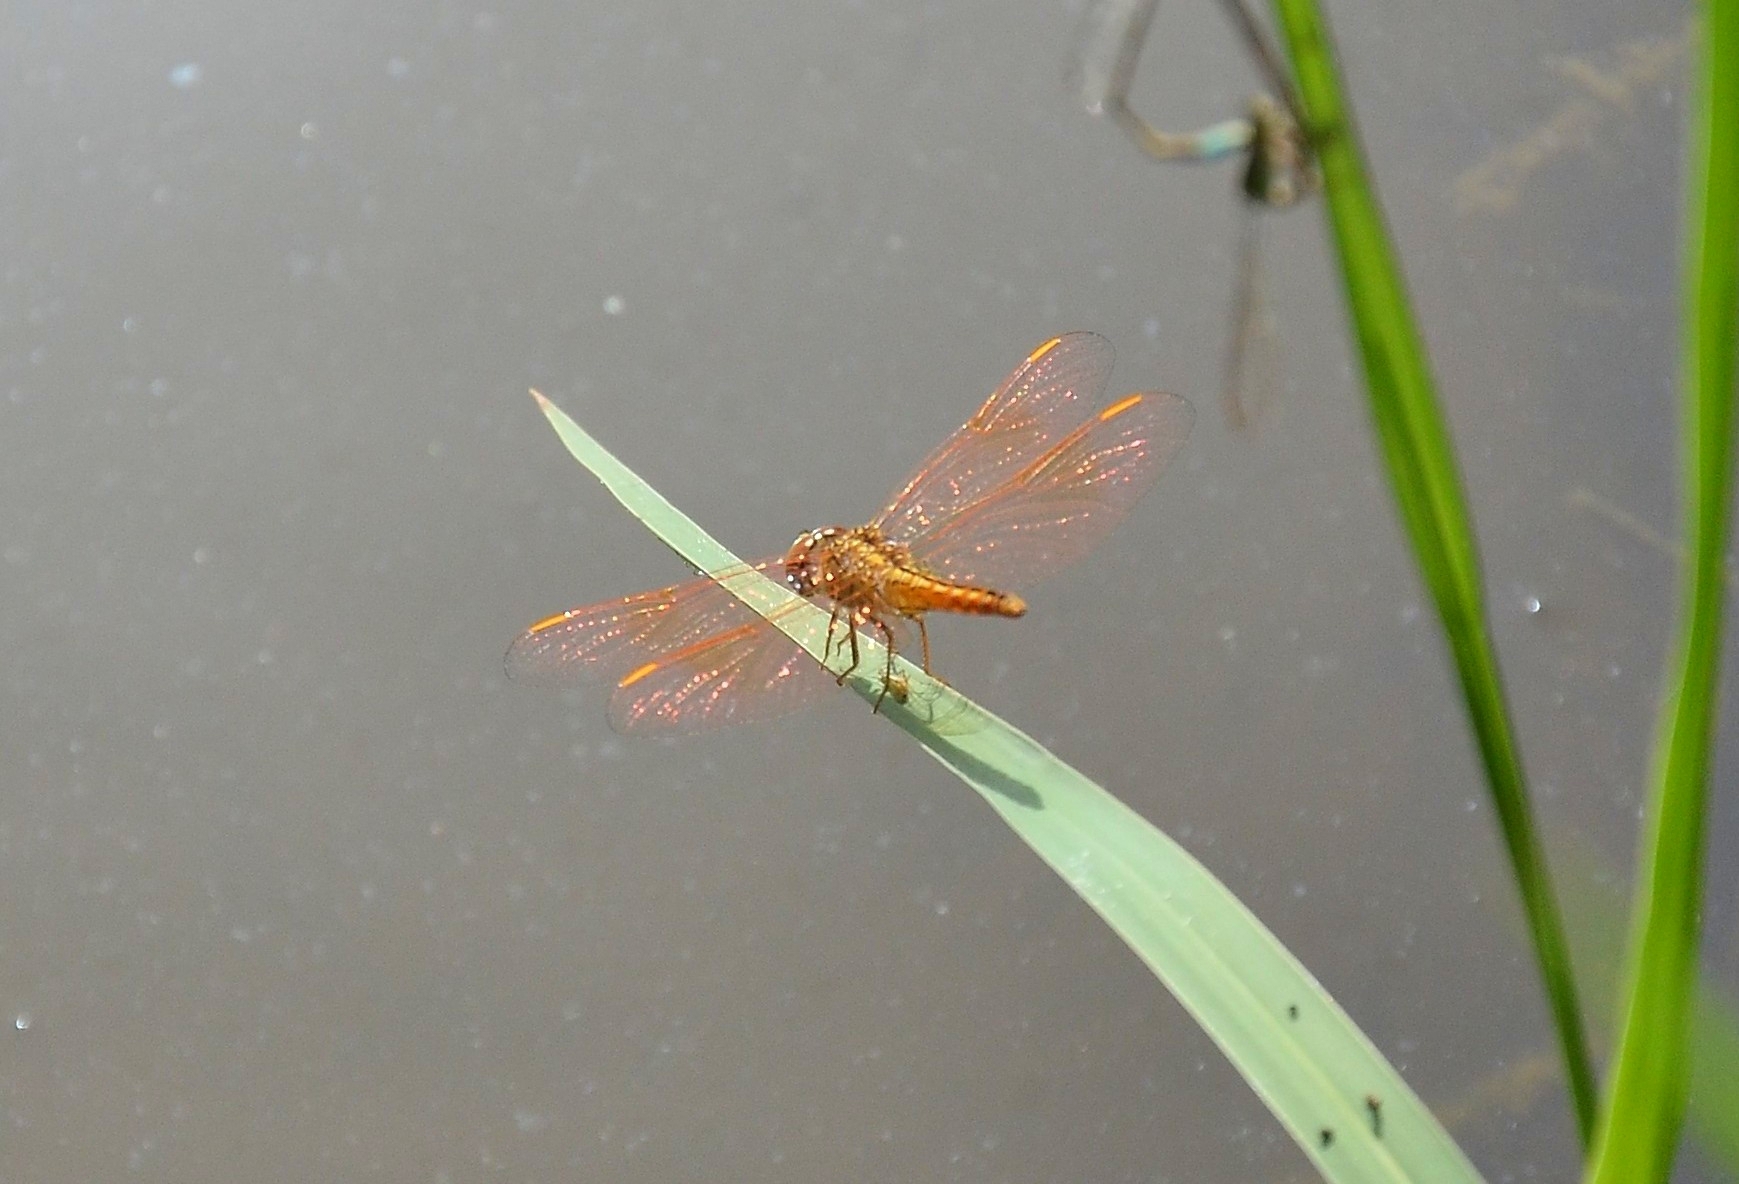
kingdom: Animalia
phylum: Arthropoda
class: Insecta
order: Odonata
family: Libellulidae
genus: Brachythemis
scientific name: Brachythemis contaminata
